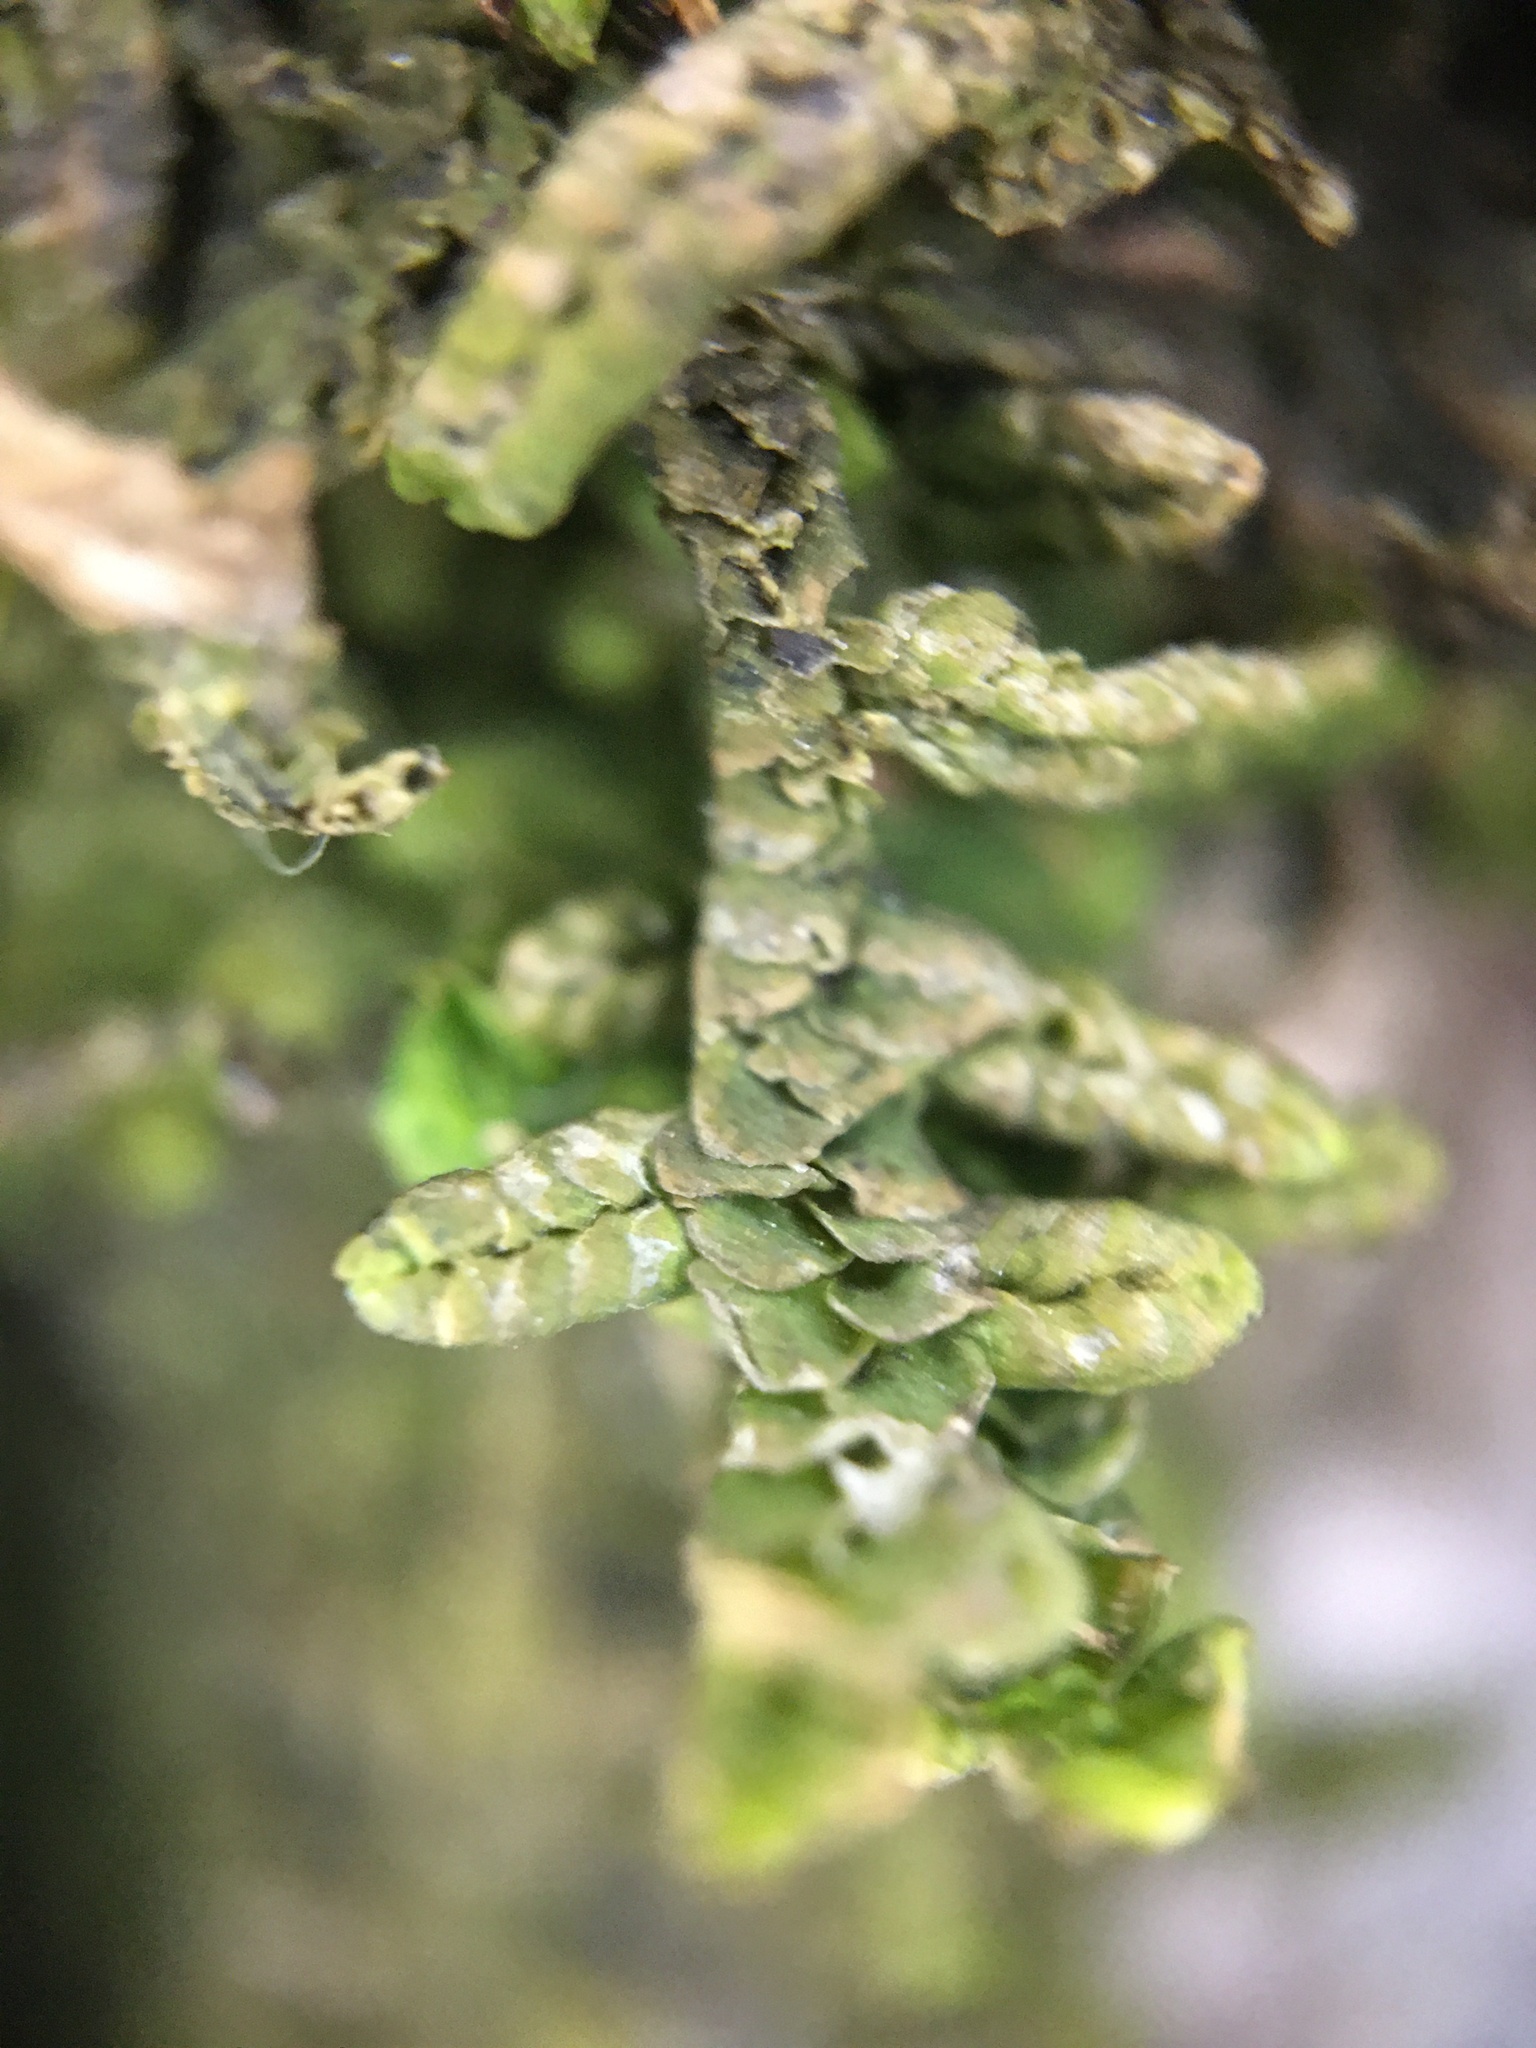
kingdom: Plantae
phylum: Marchantiophyta
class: Jungermanniopsida
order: Porellales
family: Porellaceae
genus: Porella
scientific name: Porella platyphylla
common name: Wall scalewort
